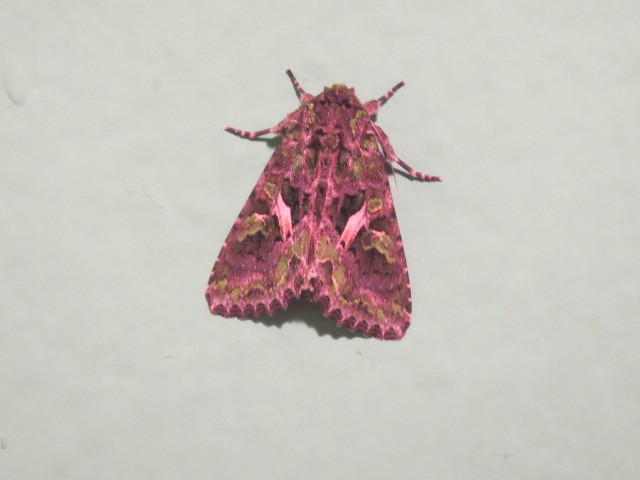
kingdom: Animalia
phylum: Arthropoda
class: Insecta
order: Lepidoptera
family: Noctuidae
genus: Trachea
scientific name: Trachea atriplicis
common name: Orache moth
